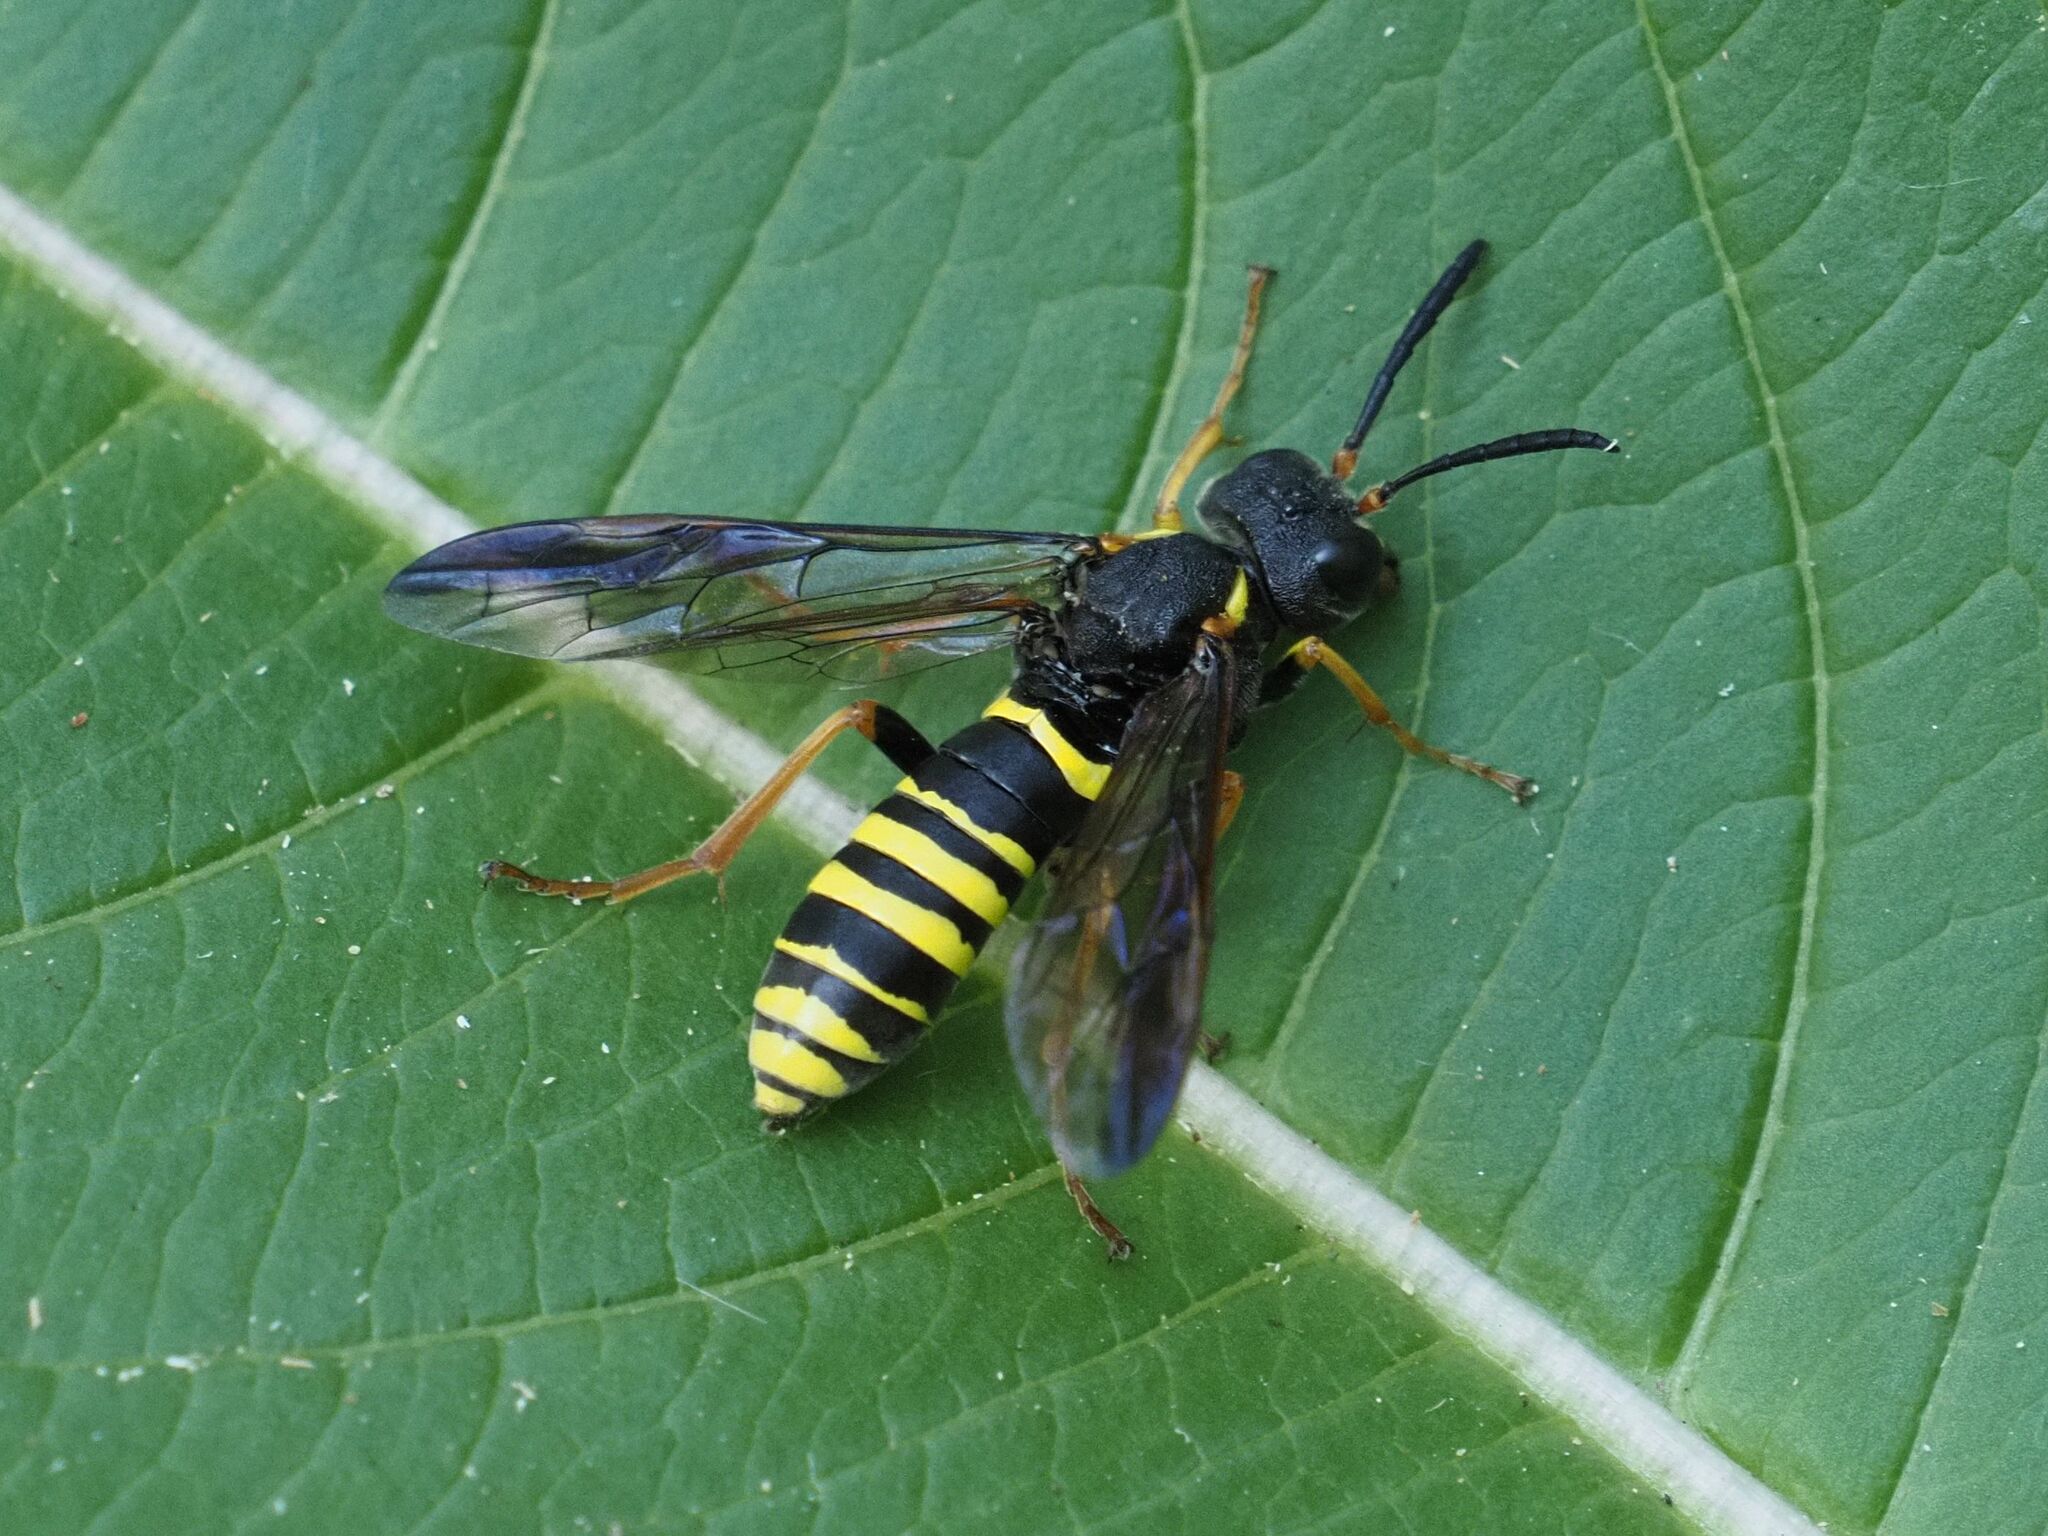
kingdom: Animalia
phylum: Arthropoda
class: Insecta
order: Hymenoptera
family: Tenthredinidae
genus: Tenthredo
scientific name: Tenthredo vespa
